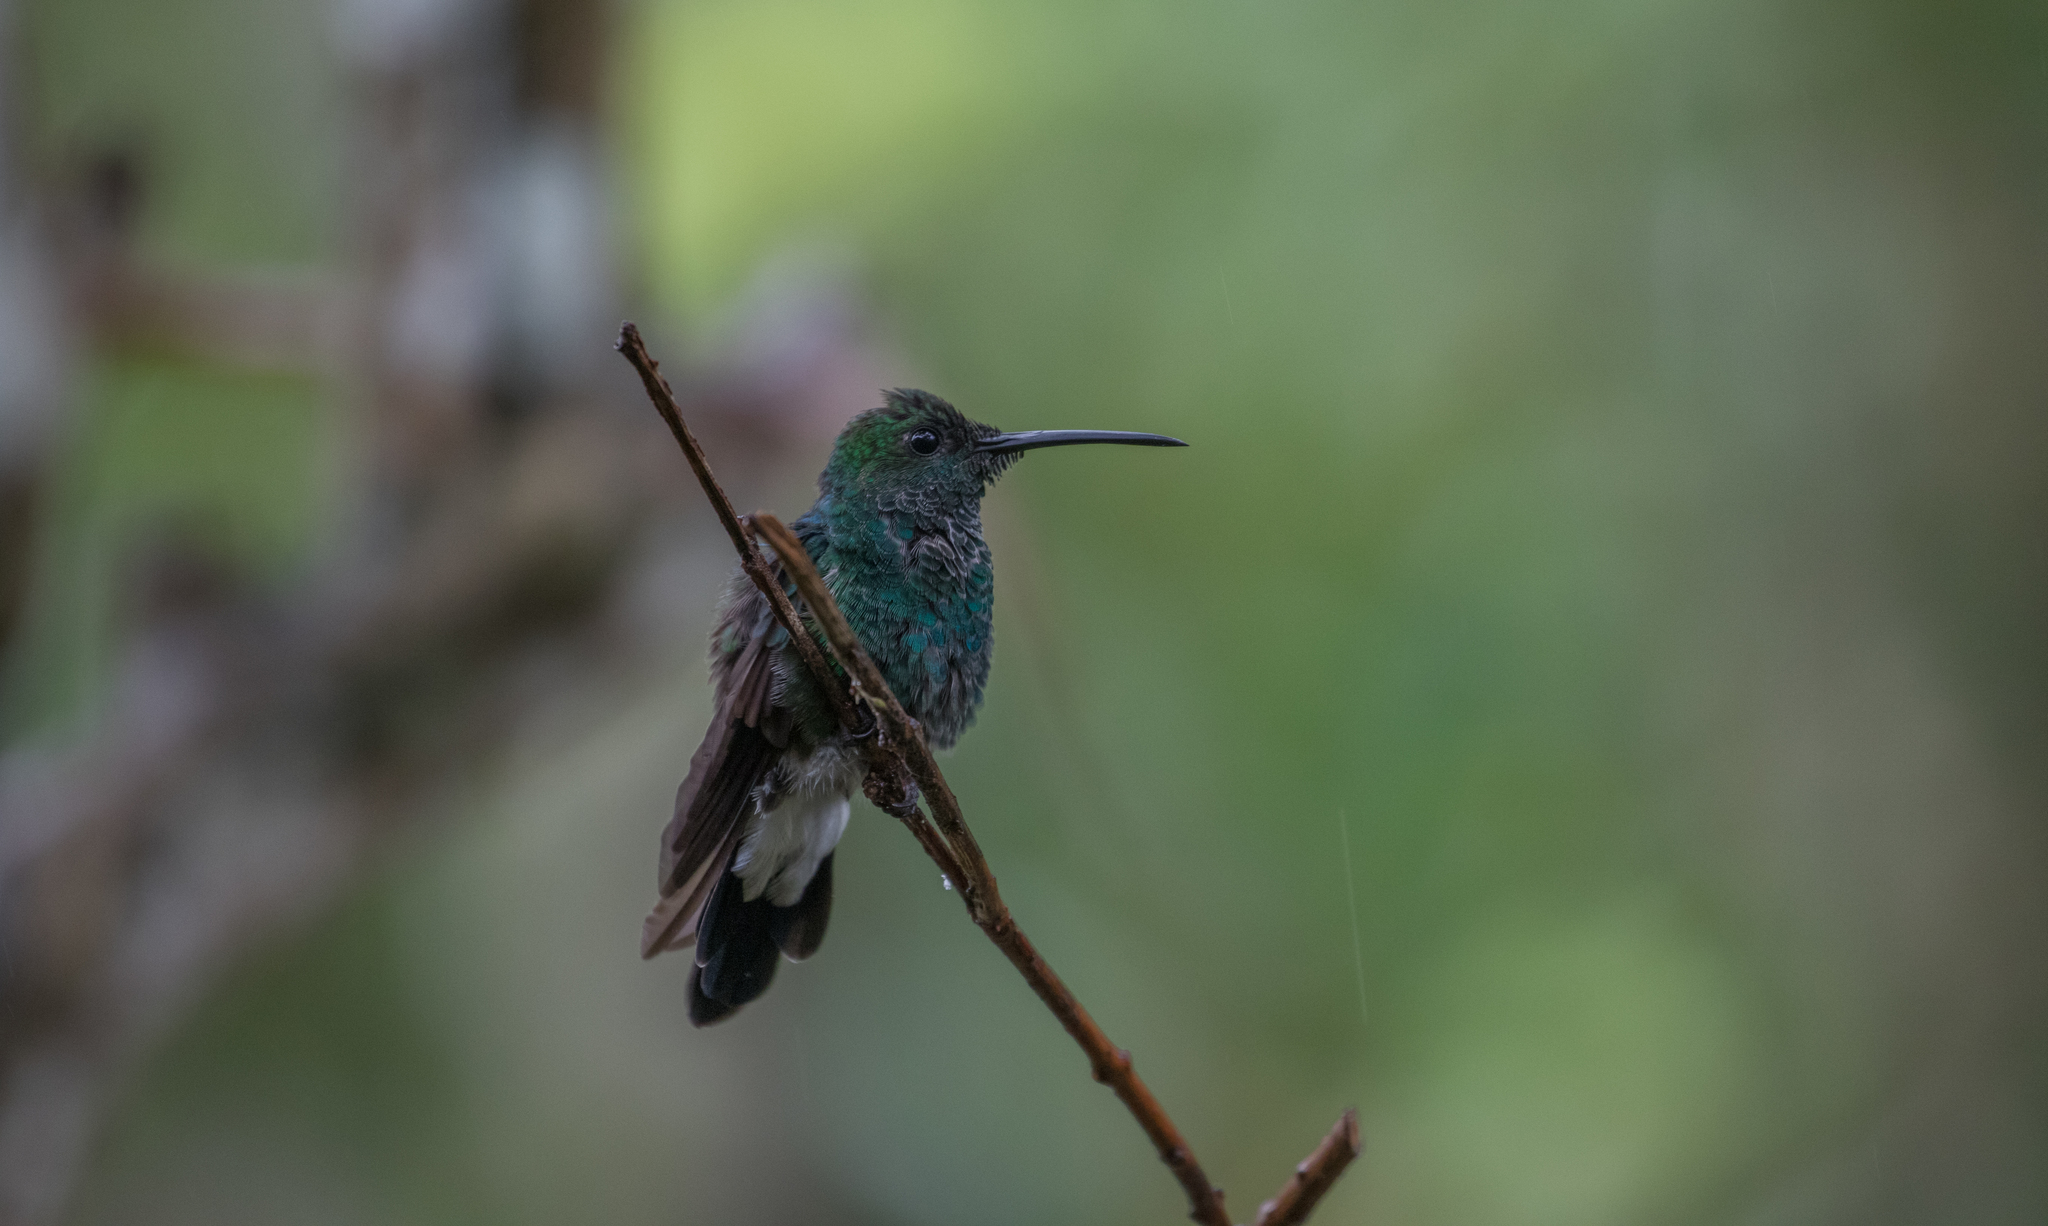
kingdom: Animalia
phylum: Chordata
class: Aves
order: Apodiformes
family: Trochilidae
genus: Chalybura
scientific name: Chalybura buffonii
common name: White-vented plumeleteer
